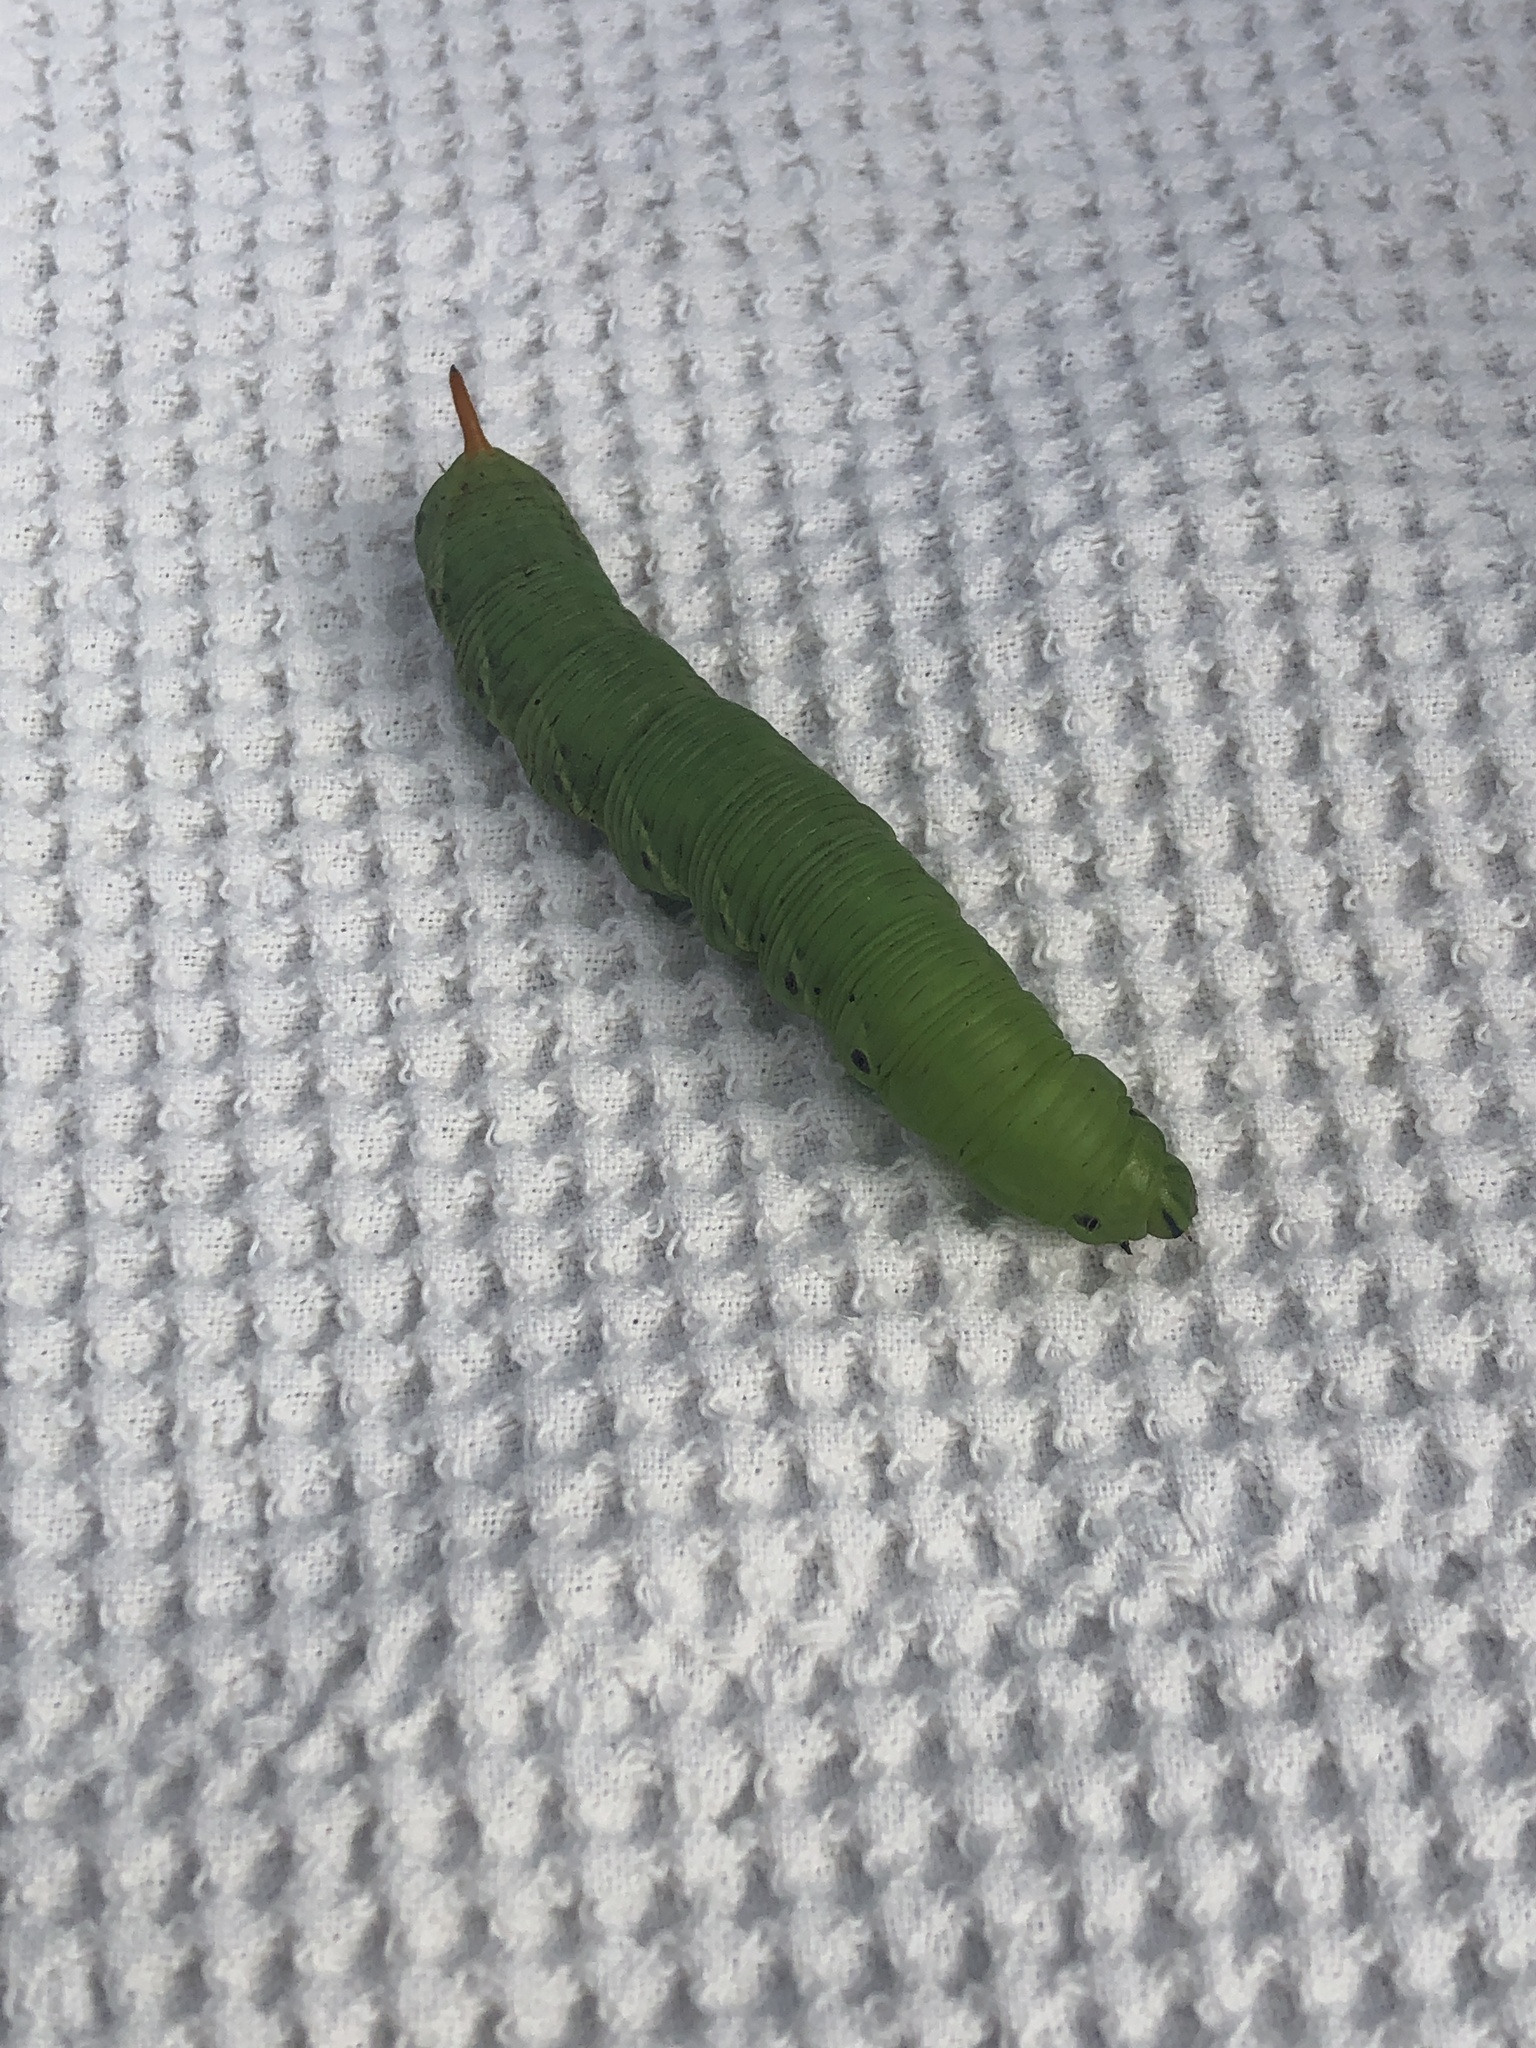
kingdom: Animalia
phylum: Arthropoda
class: Insecta
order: Lepidoptera
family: Sphingidae
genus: Agrius
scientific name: Agrius convolvuli
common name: Convolvulus hawkmoth
